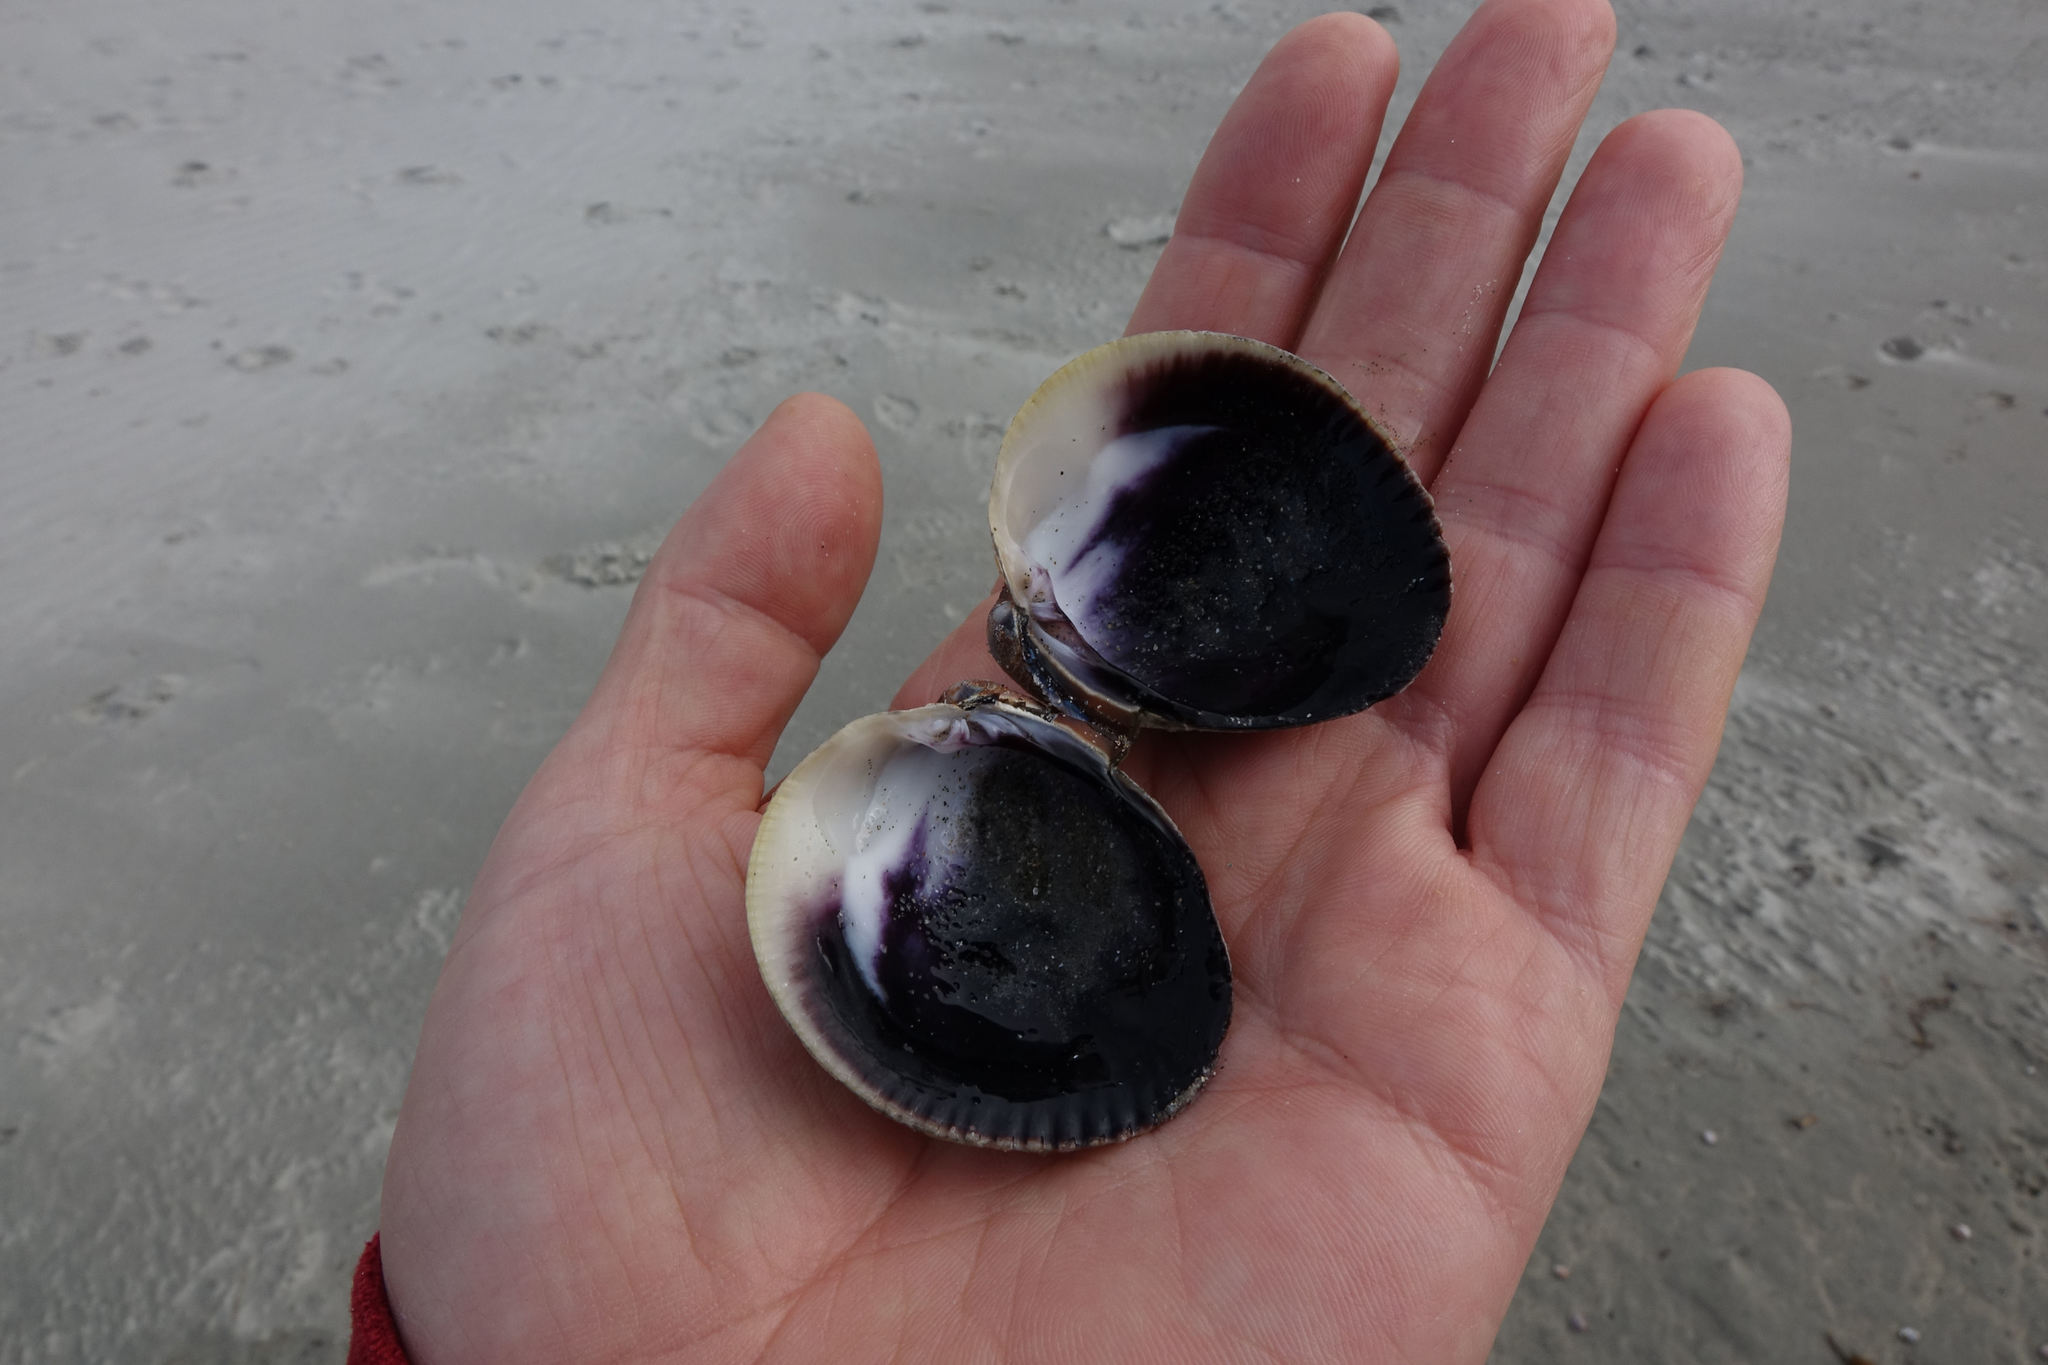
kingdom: Animalia
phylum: Mollusca
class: Bivalvia
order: Venerida
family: Veneridae
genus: Austrovenus
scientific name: Austrovenus stutchburyi
